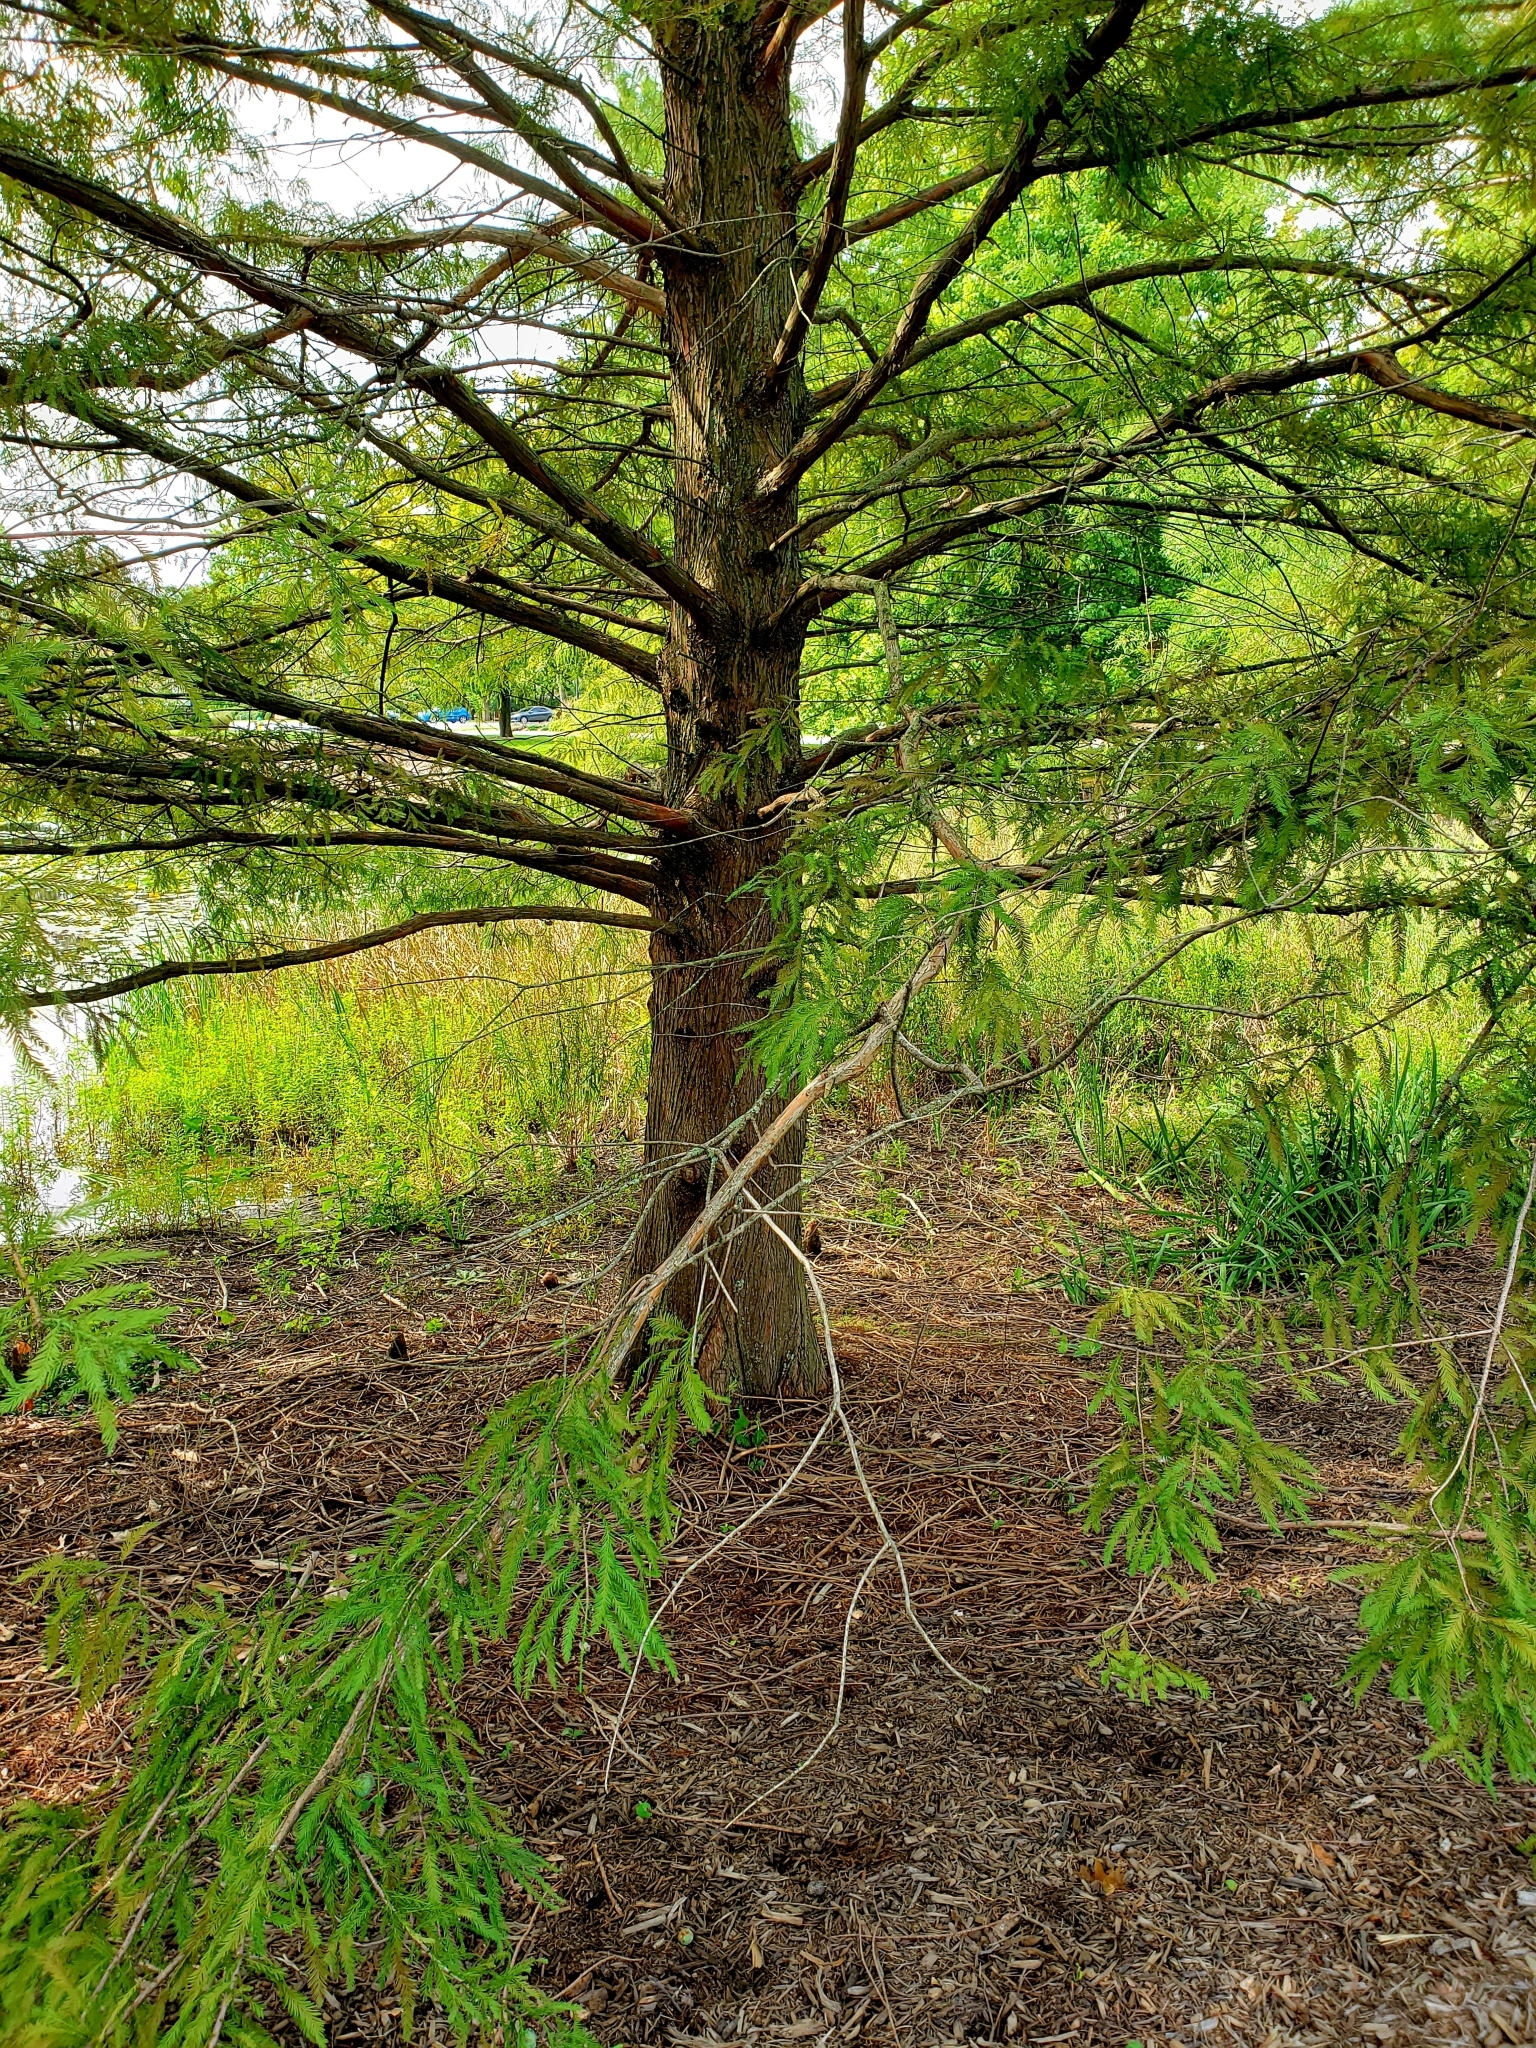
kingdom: Plantae
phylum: Tracheophyta
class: Pinopsida
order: Pinales
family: Cupressaceae
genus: Taxodium
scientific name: Taxodium distichum
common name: Bald cypress
